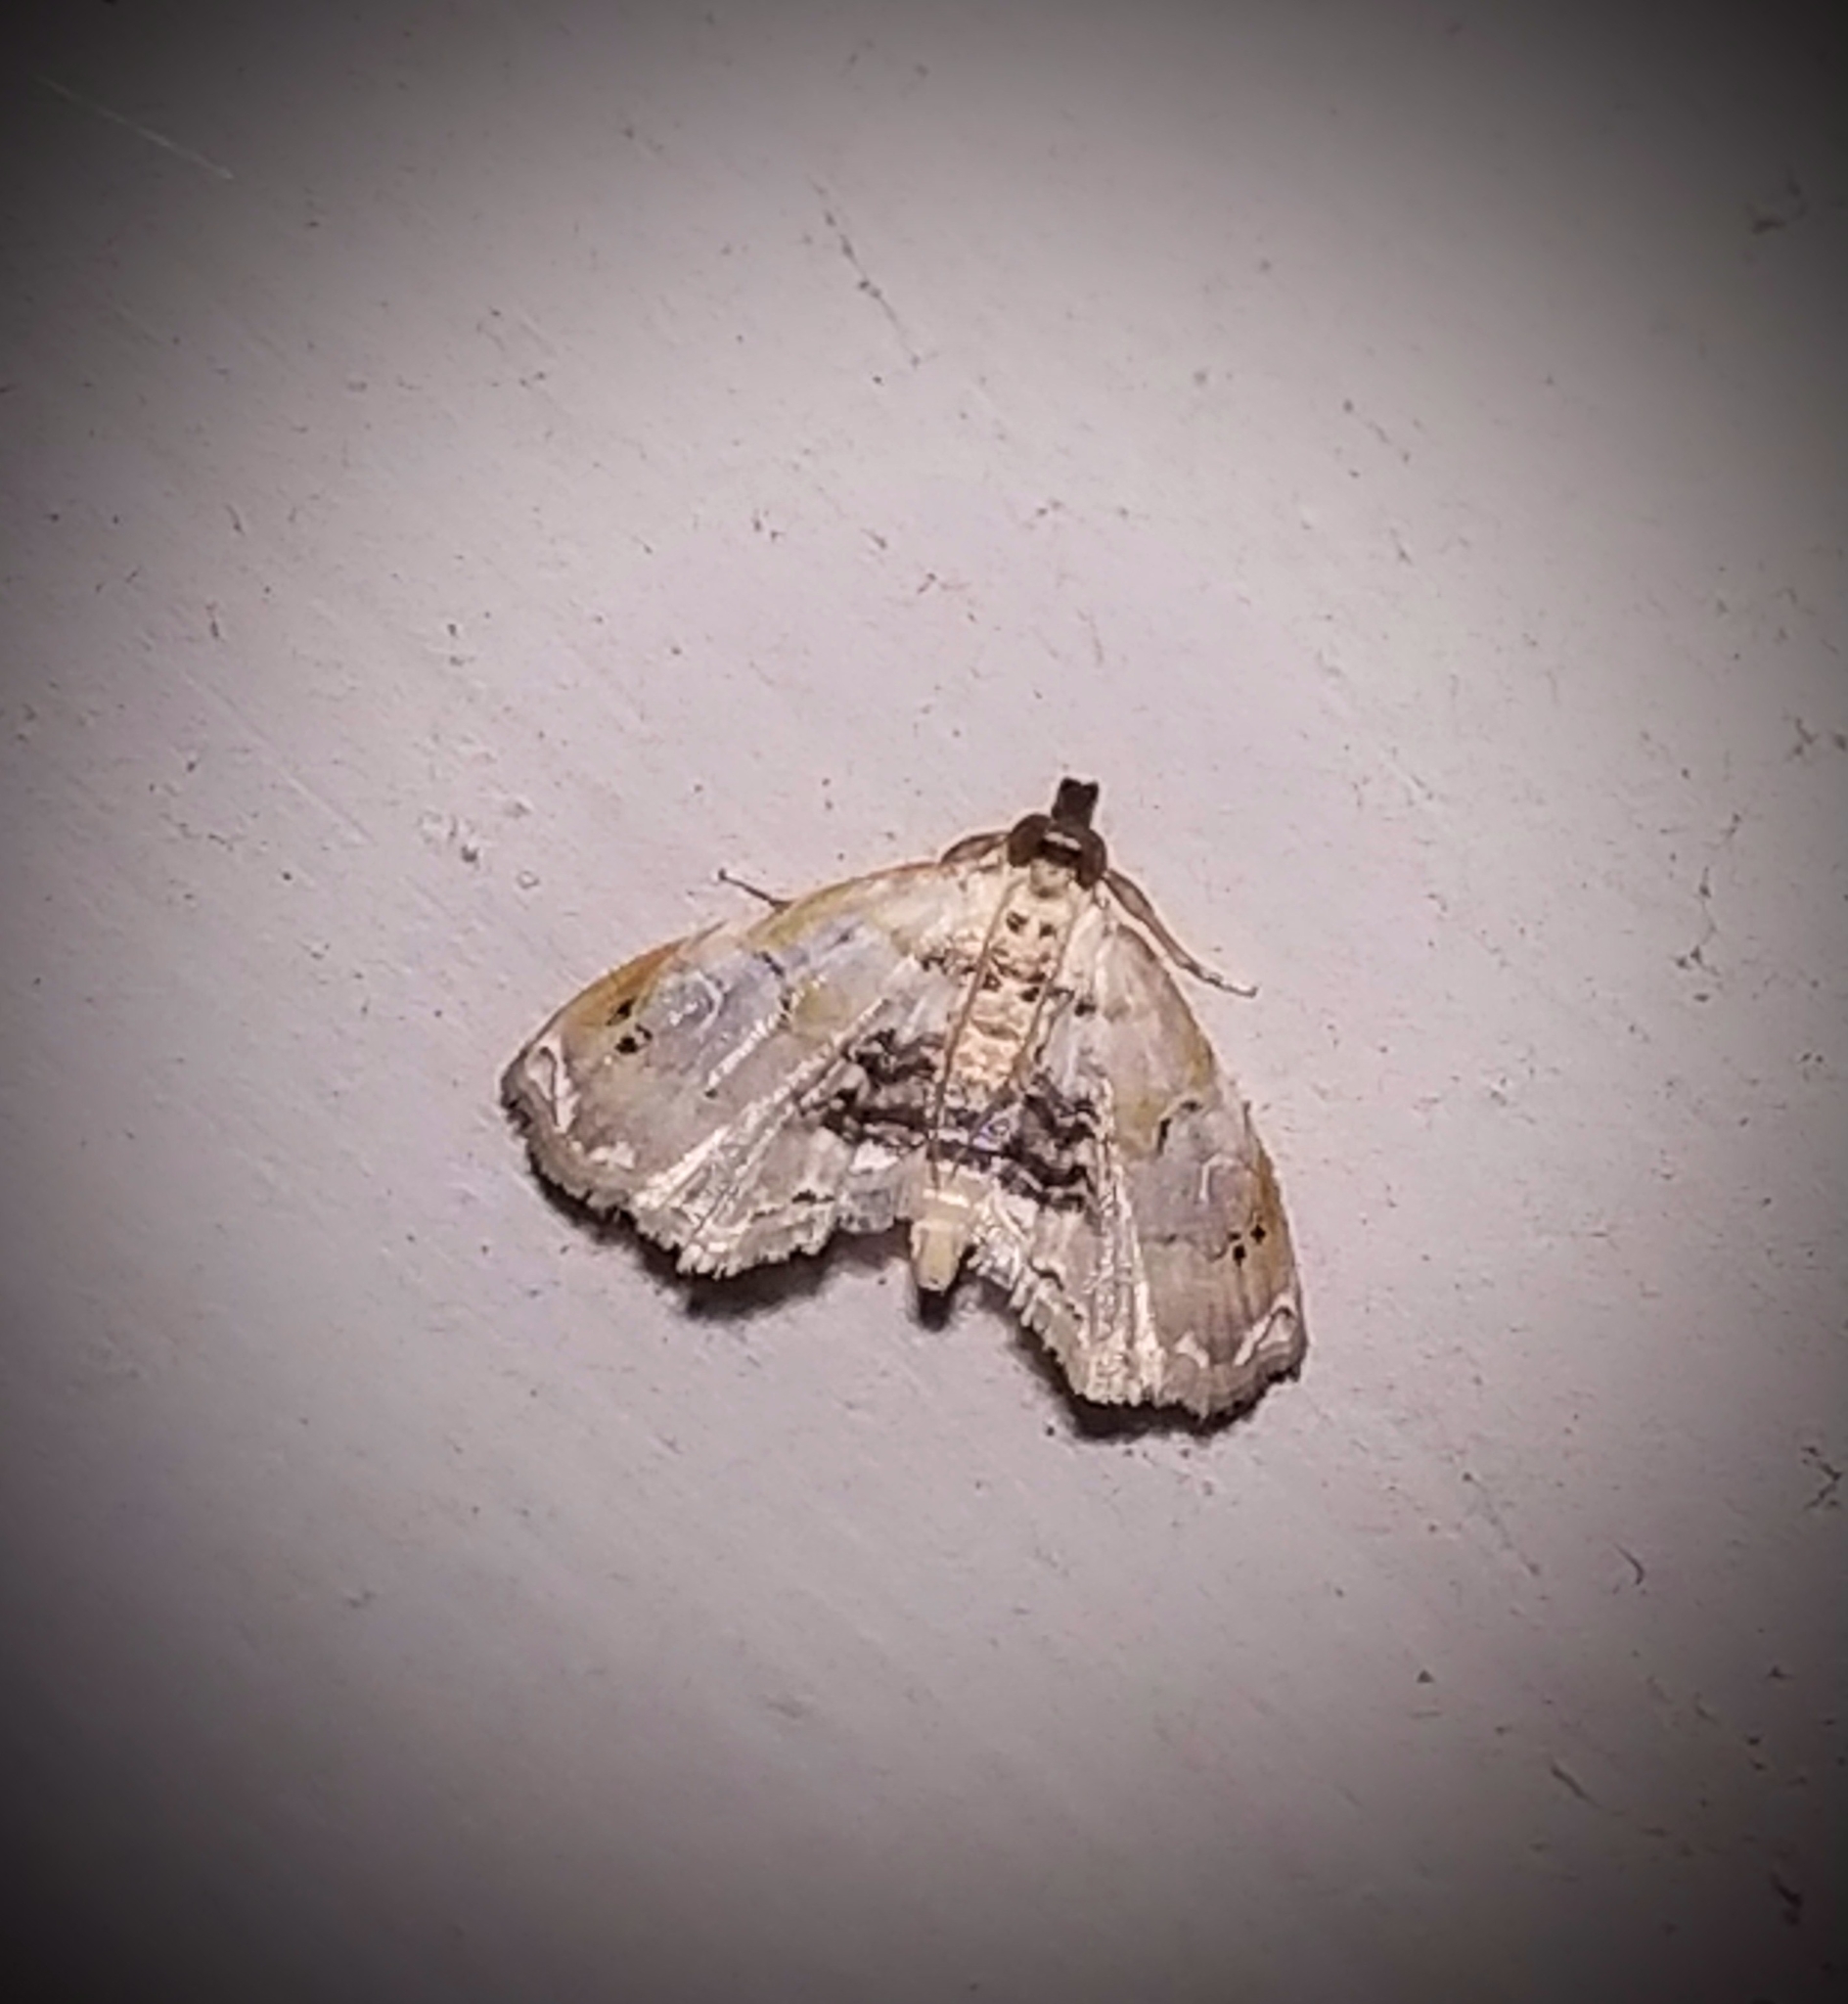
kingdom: Animalia
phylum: Arthropoda
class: Insecta
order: Lepidoptera
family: Crambidae
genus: Trichophysetis
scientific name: Trichophysetis duplifascialis
